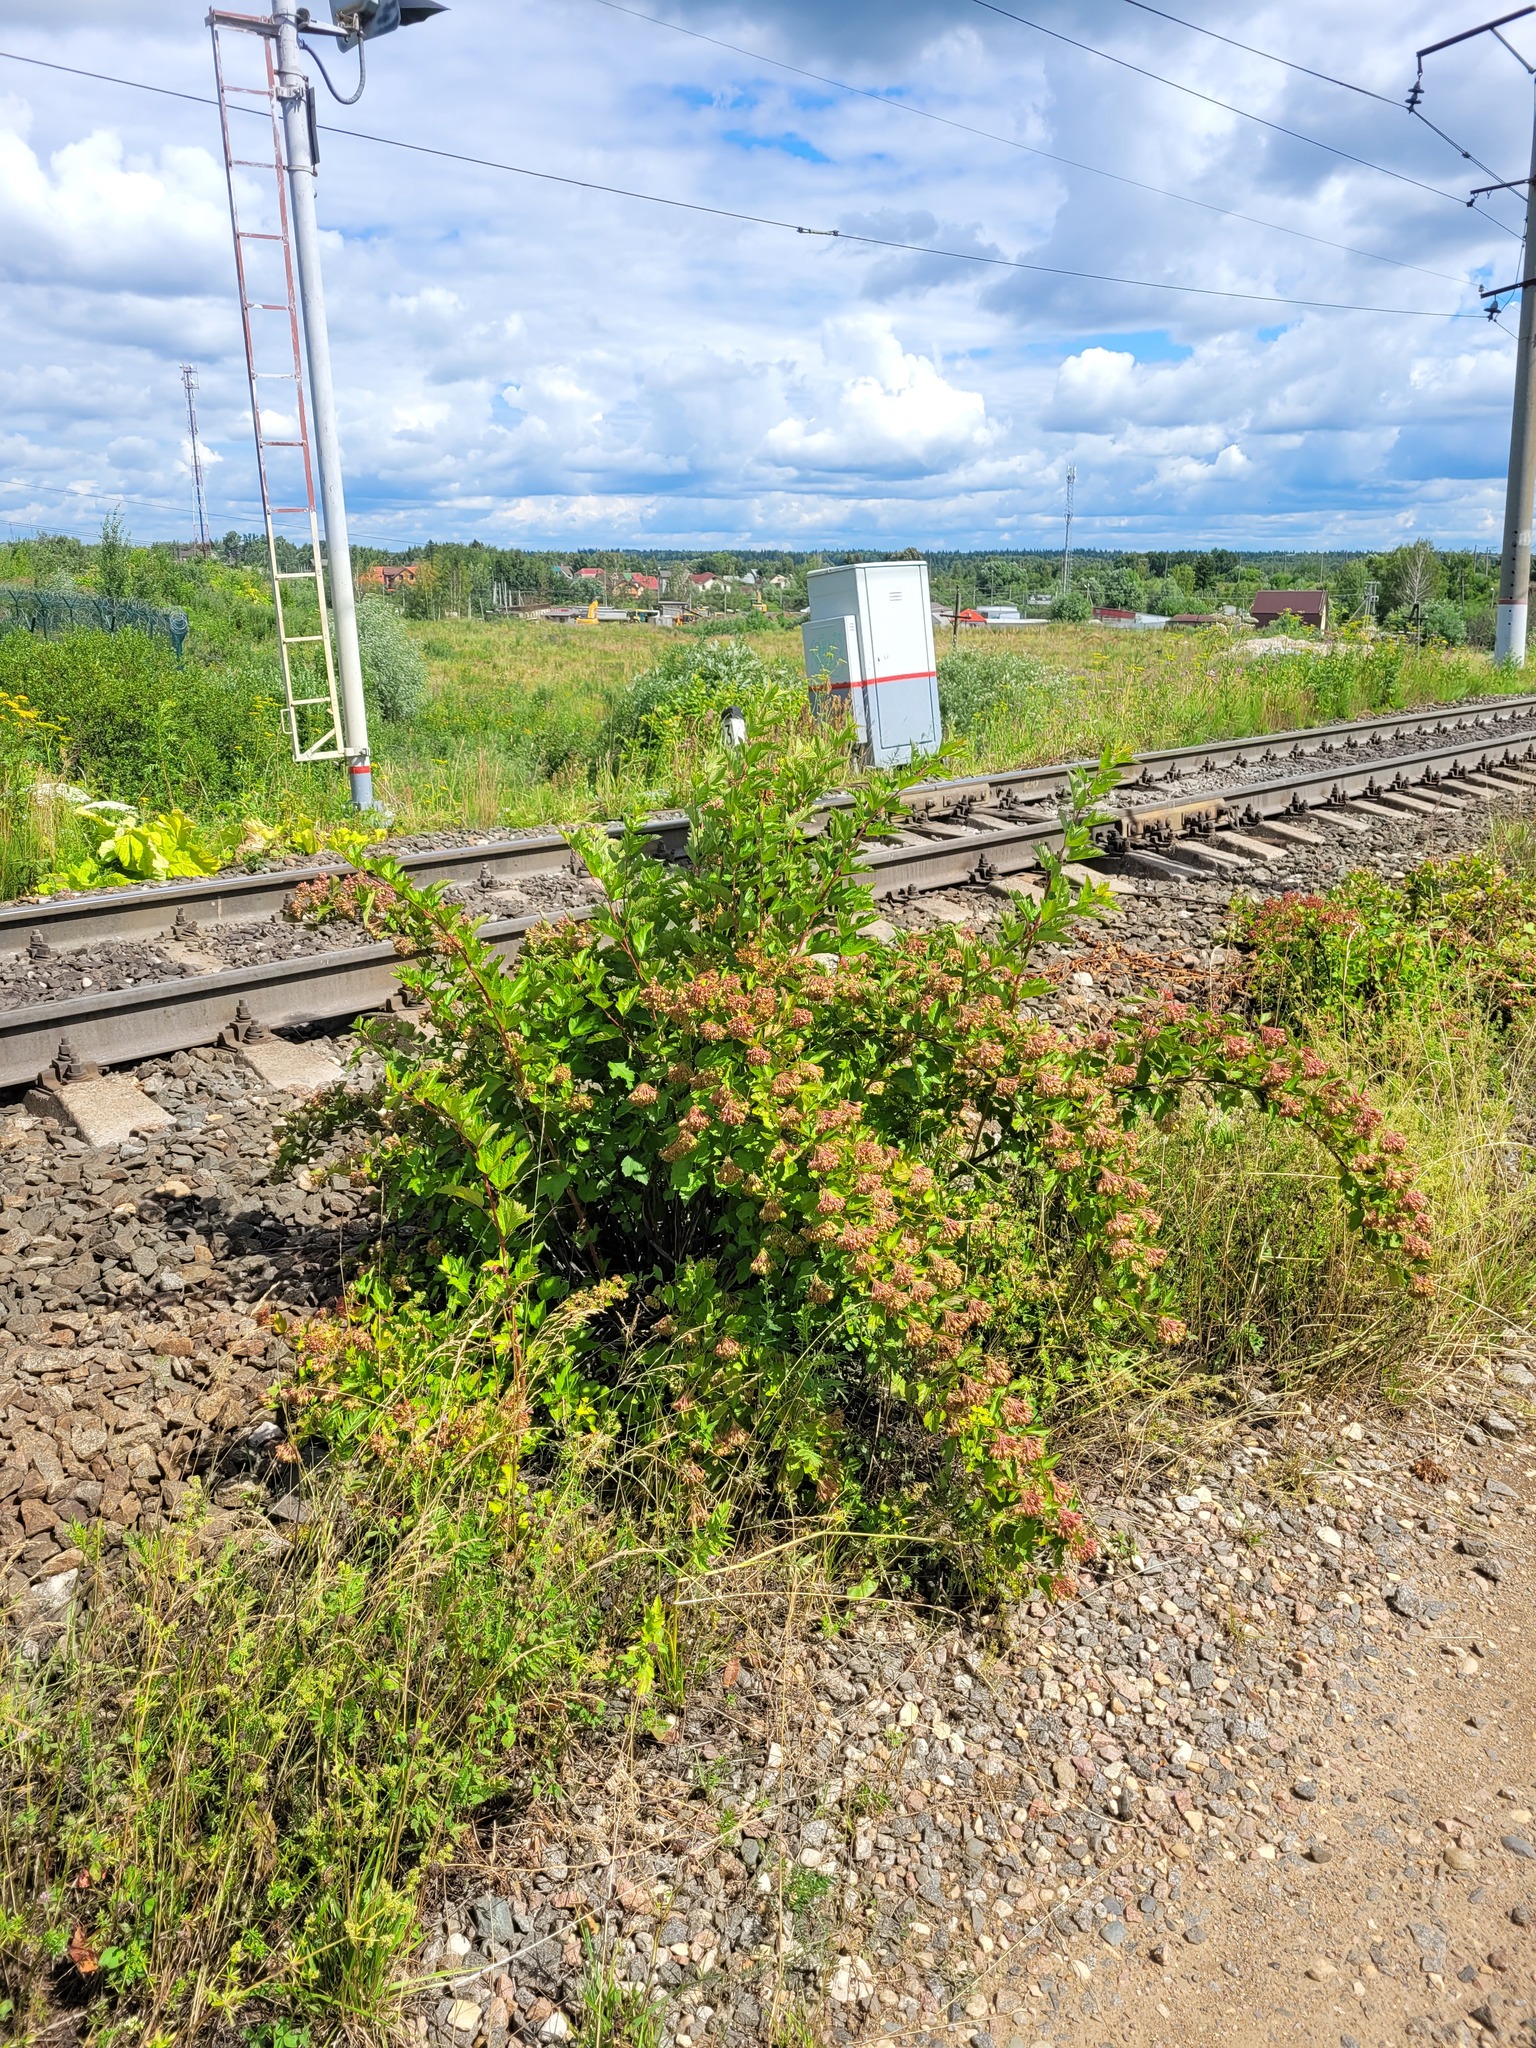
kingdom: Plantae
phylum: Tracheophyta
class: Magnoliopsida
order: Rosales
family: Rosaceae
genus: Physocarpus
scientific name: Physocarpus opulifolius
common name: Ninebark
